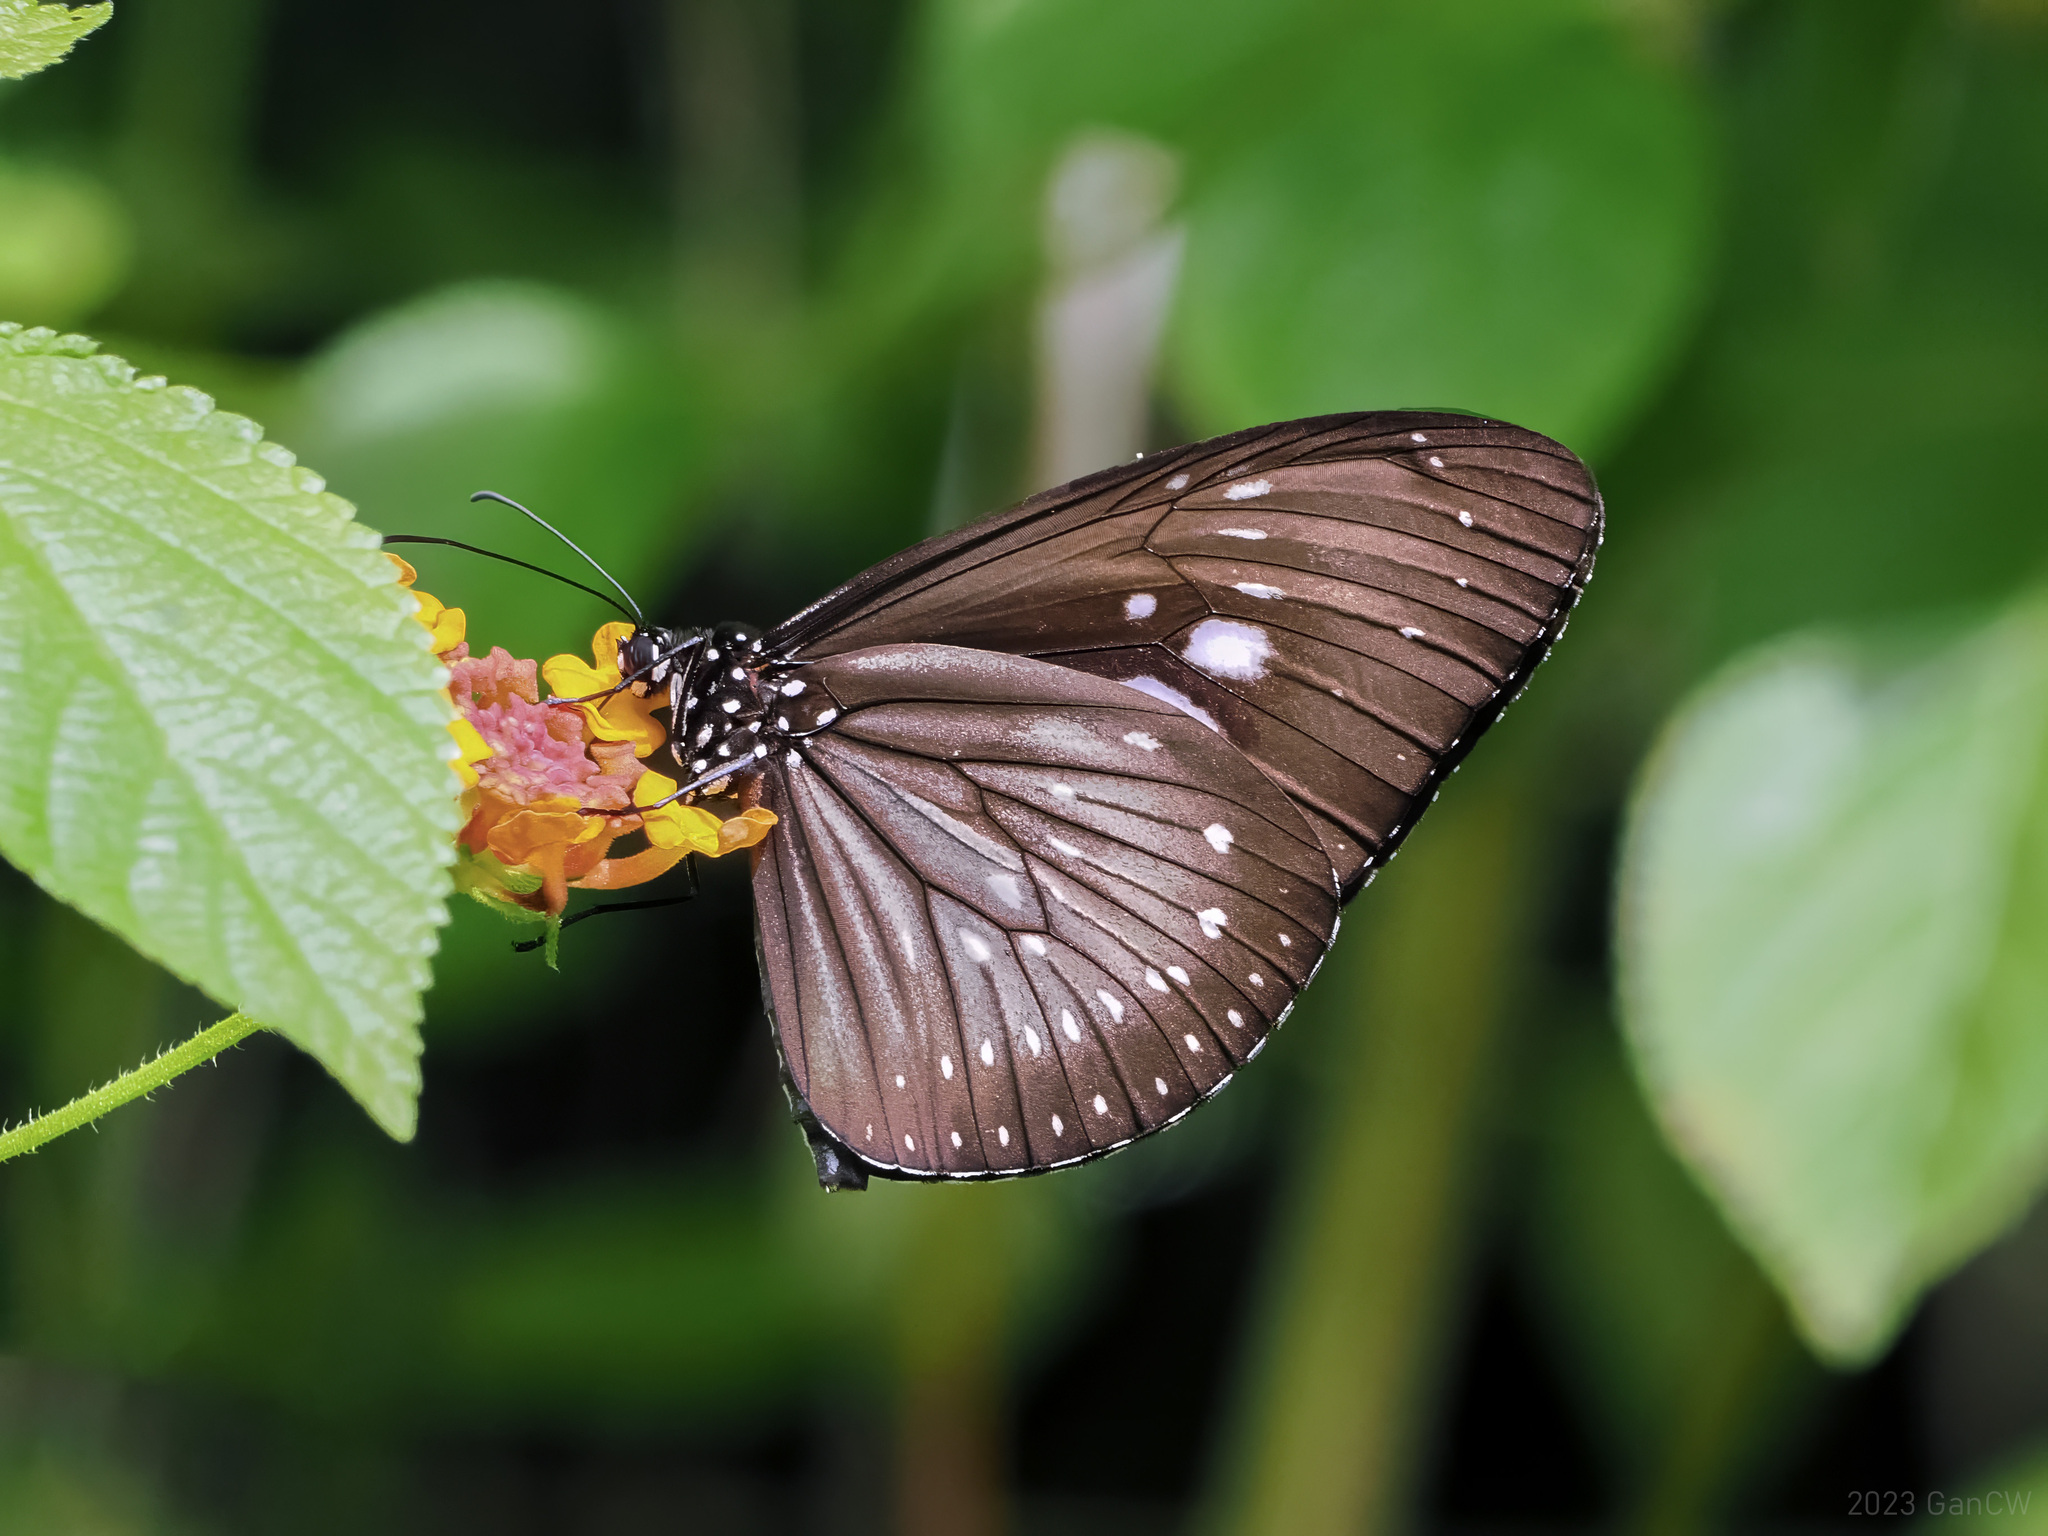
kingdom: Animalia
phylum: Arthropoda
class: Insecta
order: Lepidoptera
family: Nymphalidae
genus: Euploea
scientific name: Euploea algea
